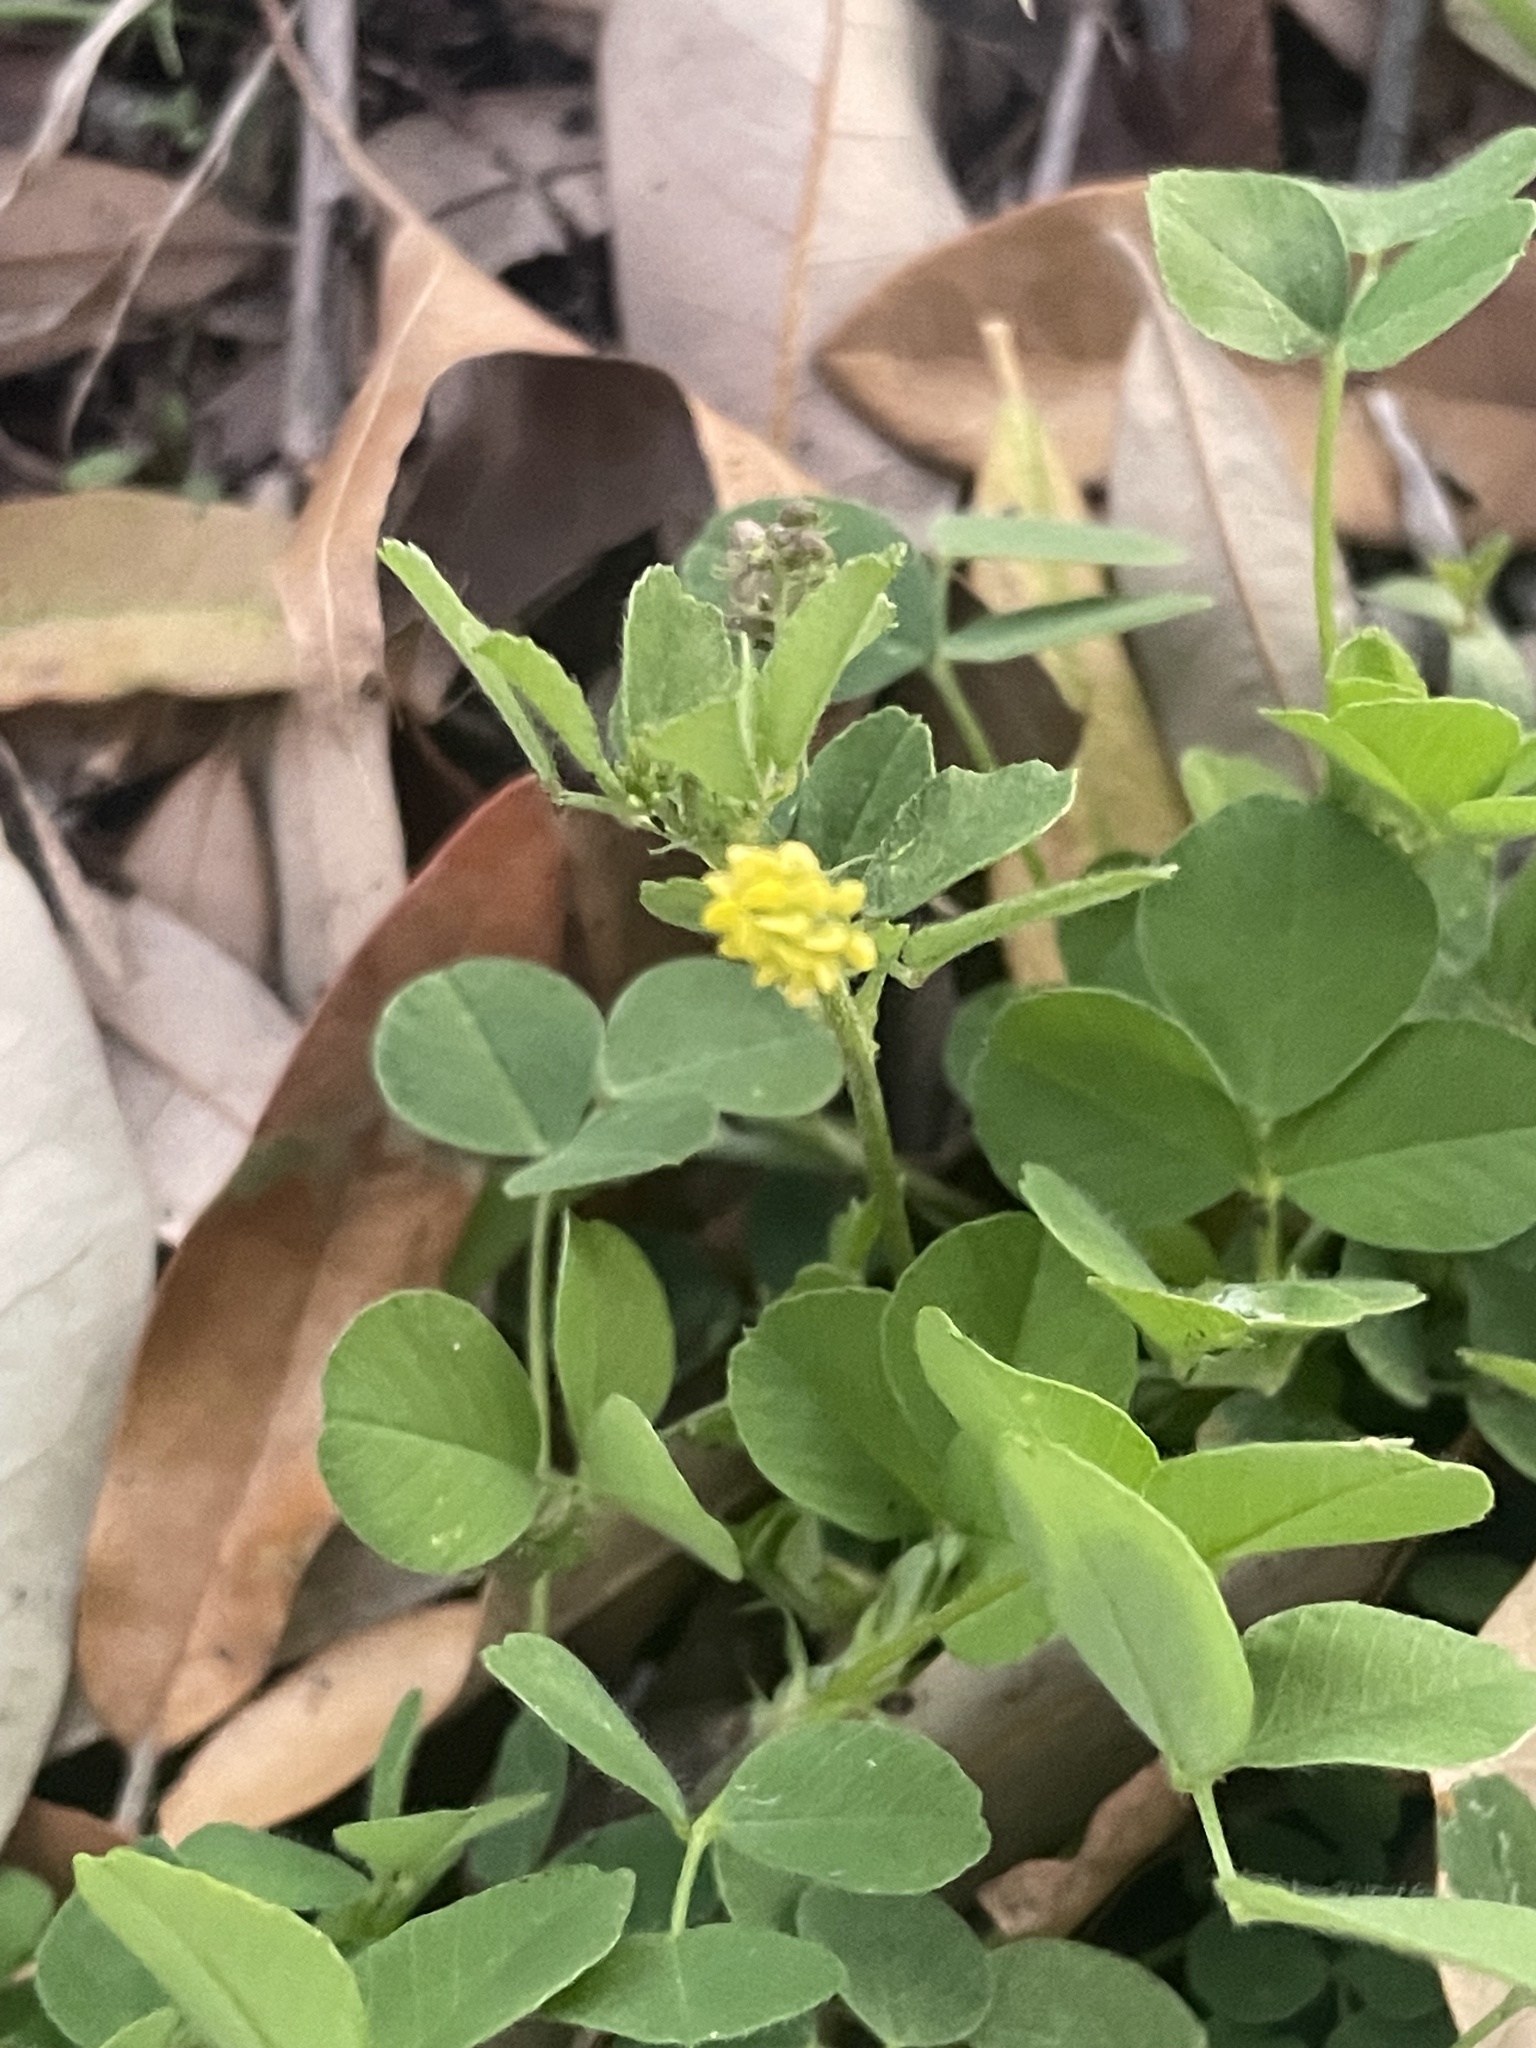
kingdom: Plantae
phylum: Tracheophyta
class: Magnoliopsida
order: Fabales
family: Fabaceae
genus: Medicago
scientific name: Medicago lupulina
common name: Black medick
